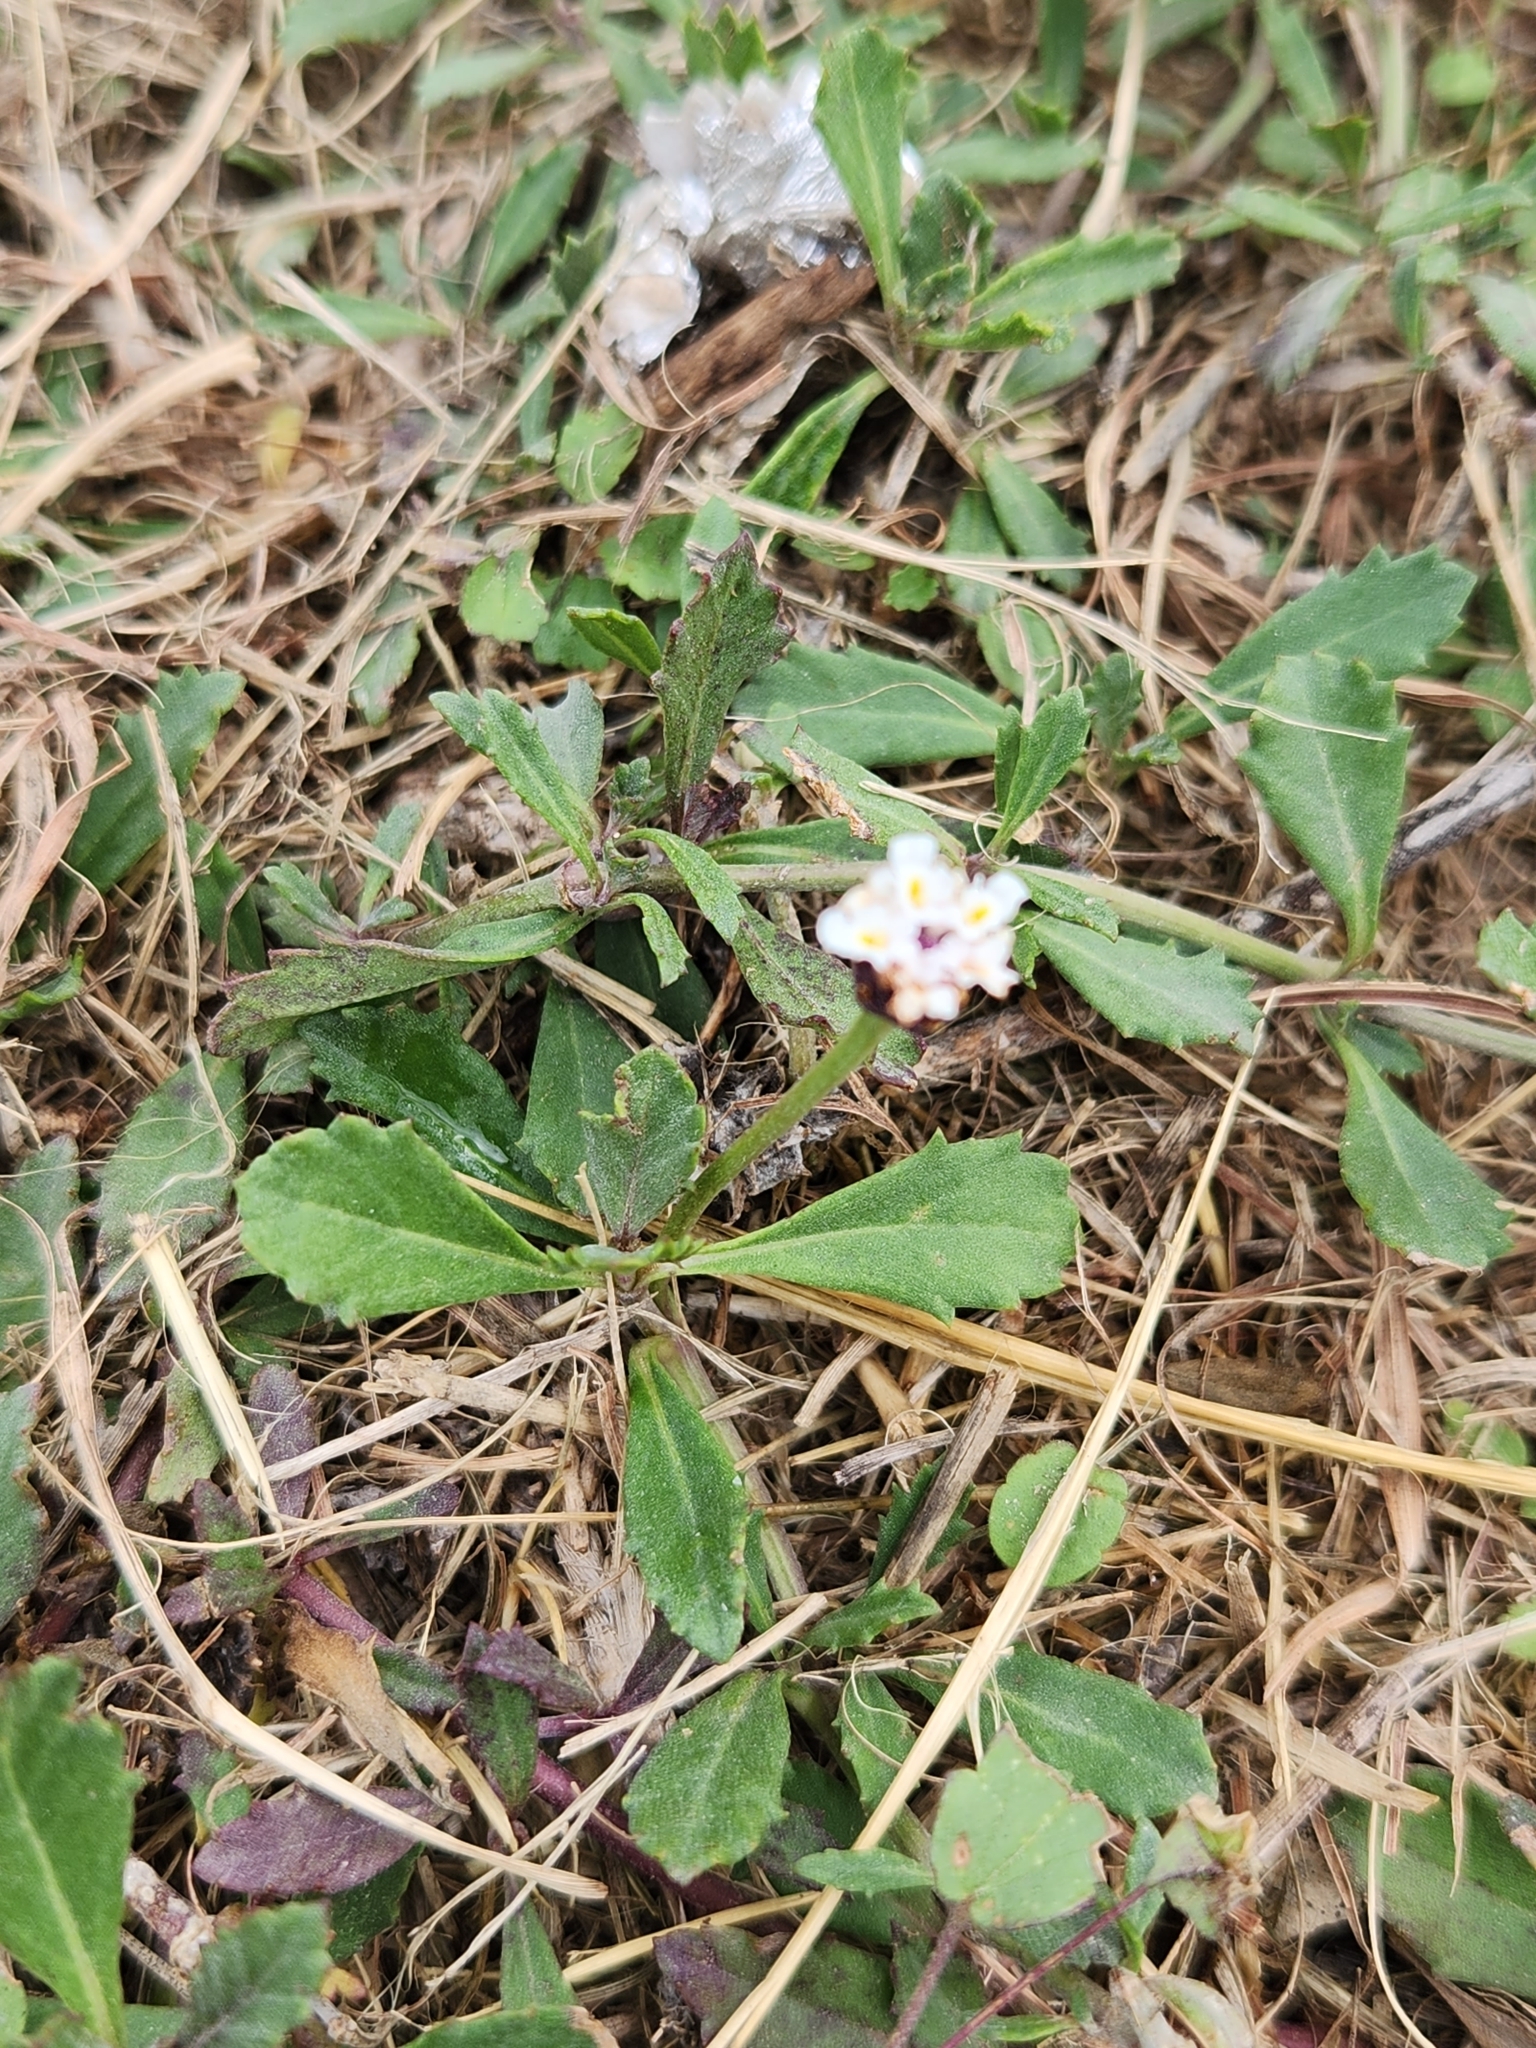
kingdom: Plantae
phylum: Tracheophyta
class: Magnoliopsida
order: Lamiales
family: Verbenaceae
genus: Phyla
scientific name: Phyla nodiflora
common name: Frogfruit
